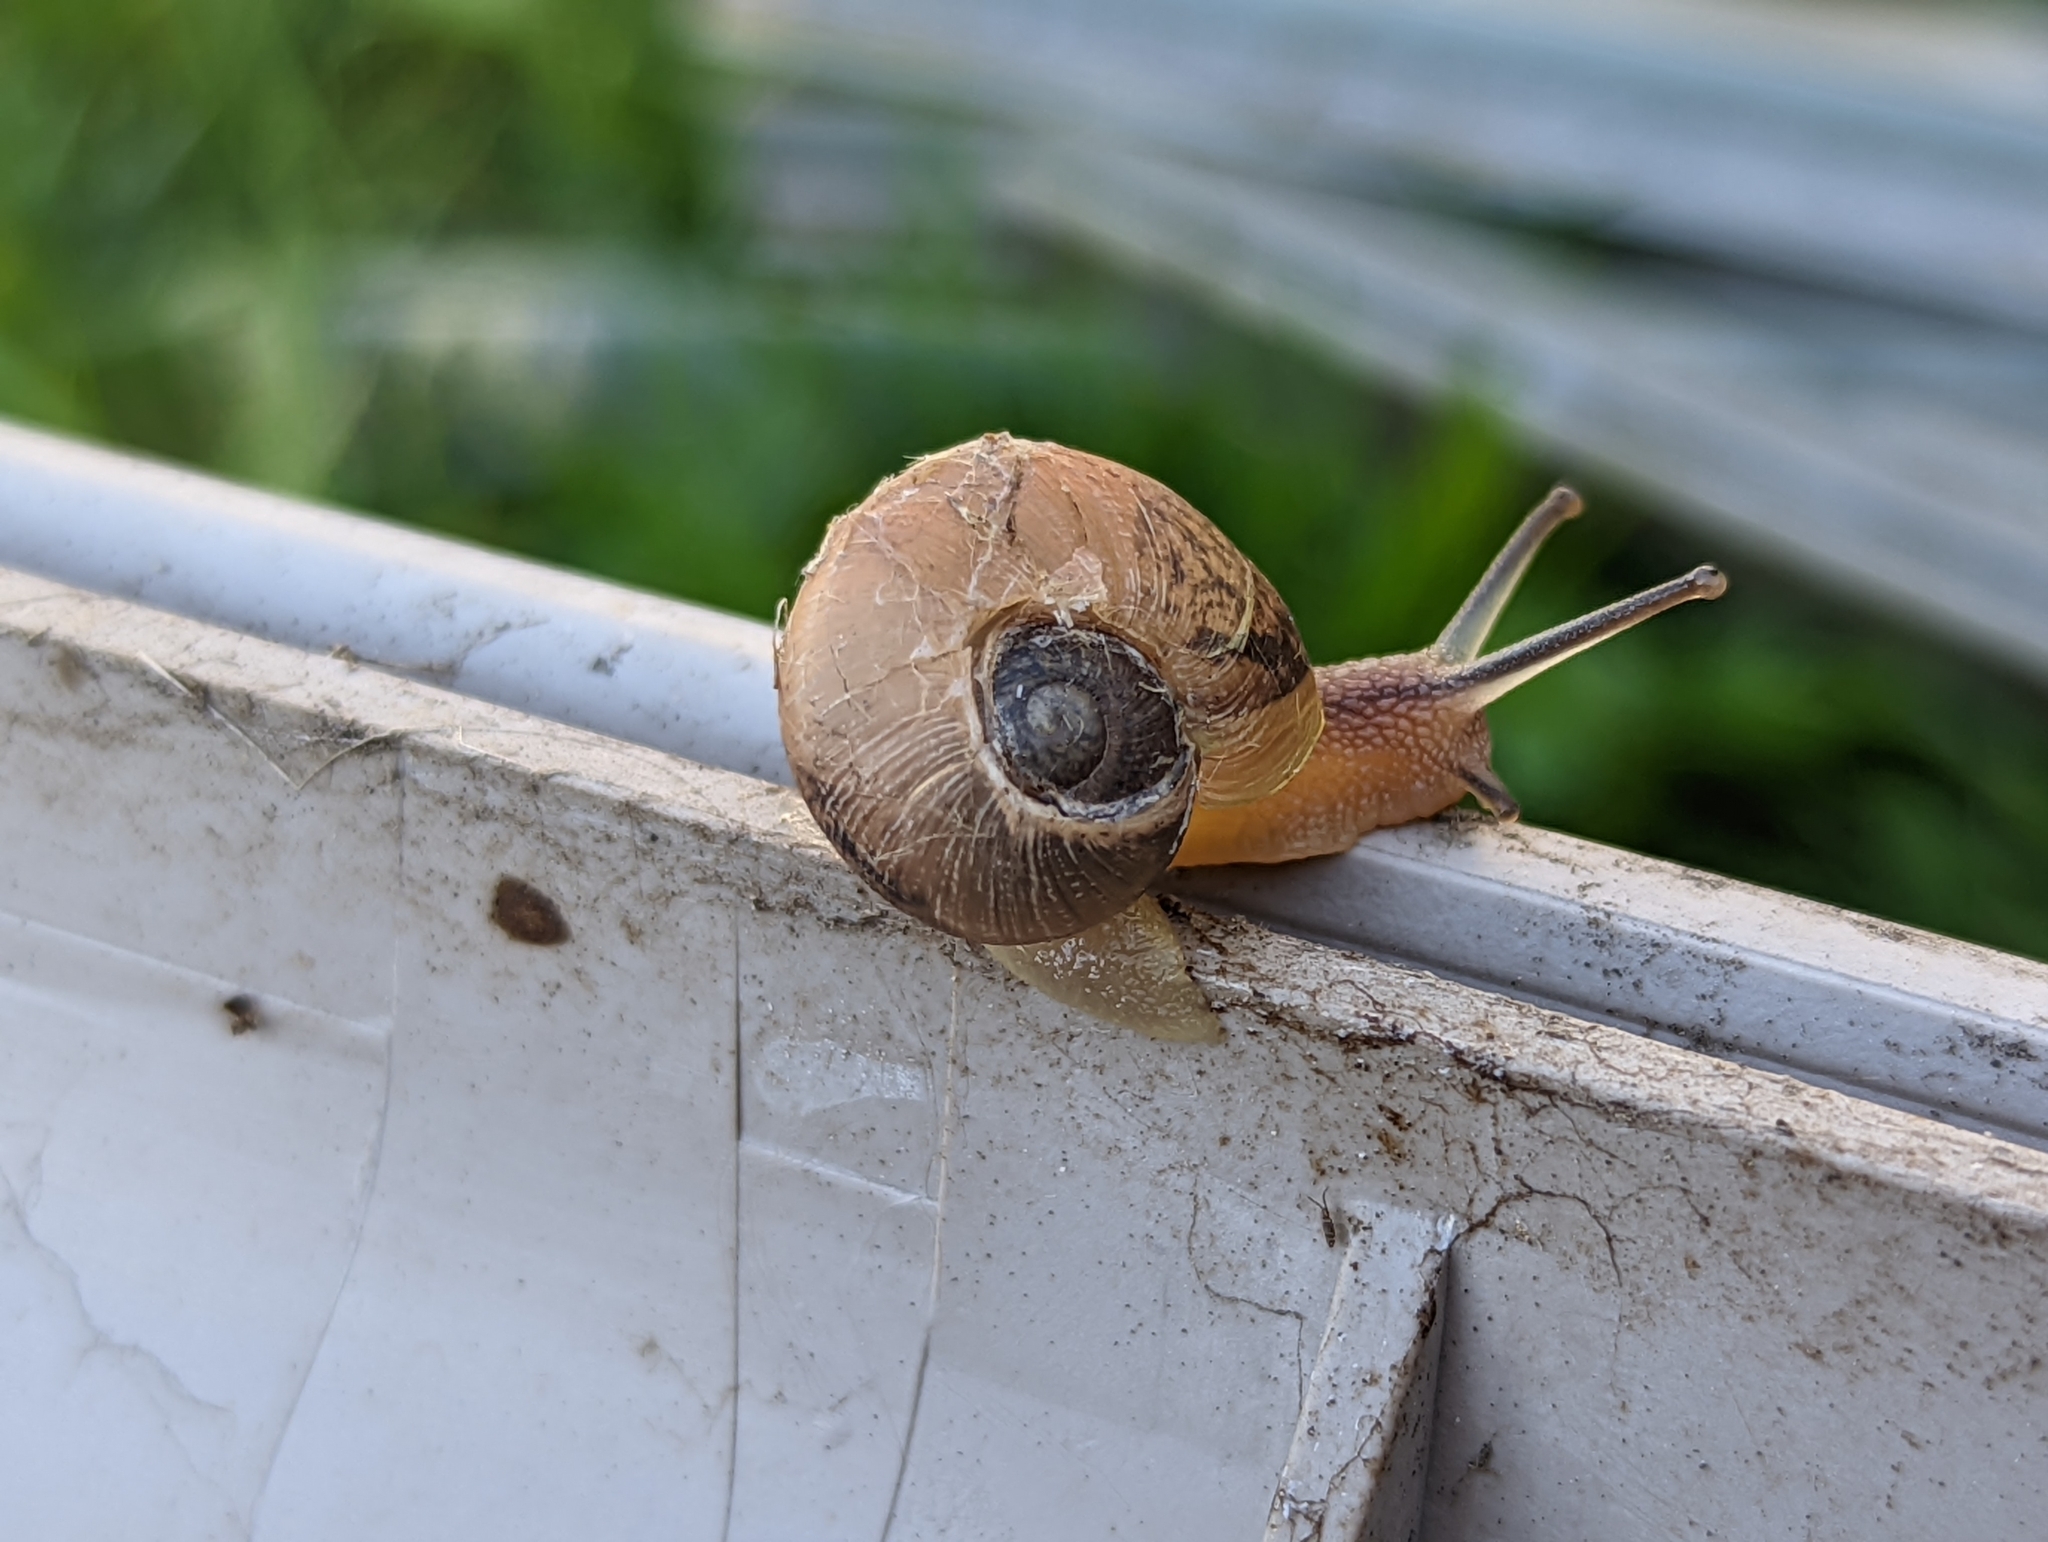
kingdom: Animalia
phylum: Mollusca
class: Gastropoda
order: Stylommatophora
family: Helicidae
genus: Cornu
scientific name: Cornu aspersum
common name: Brown garden snail
